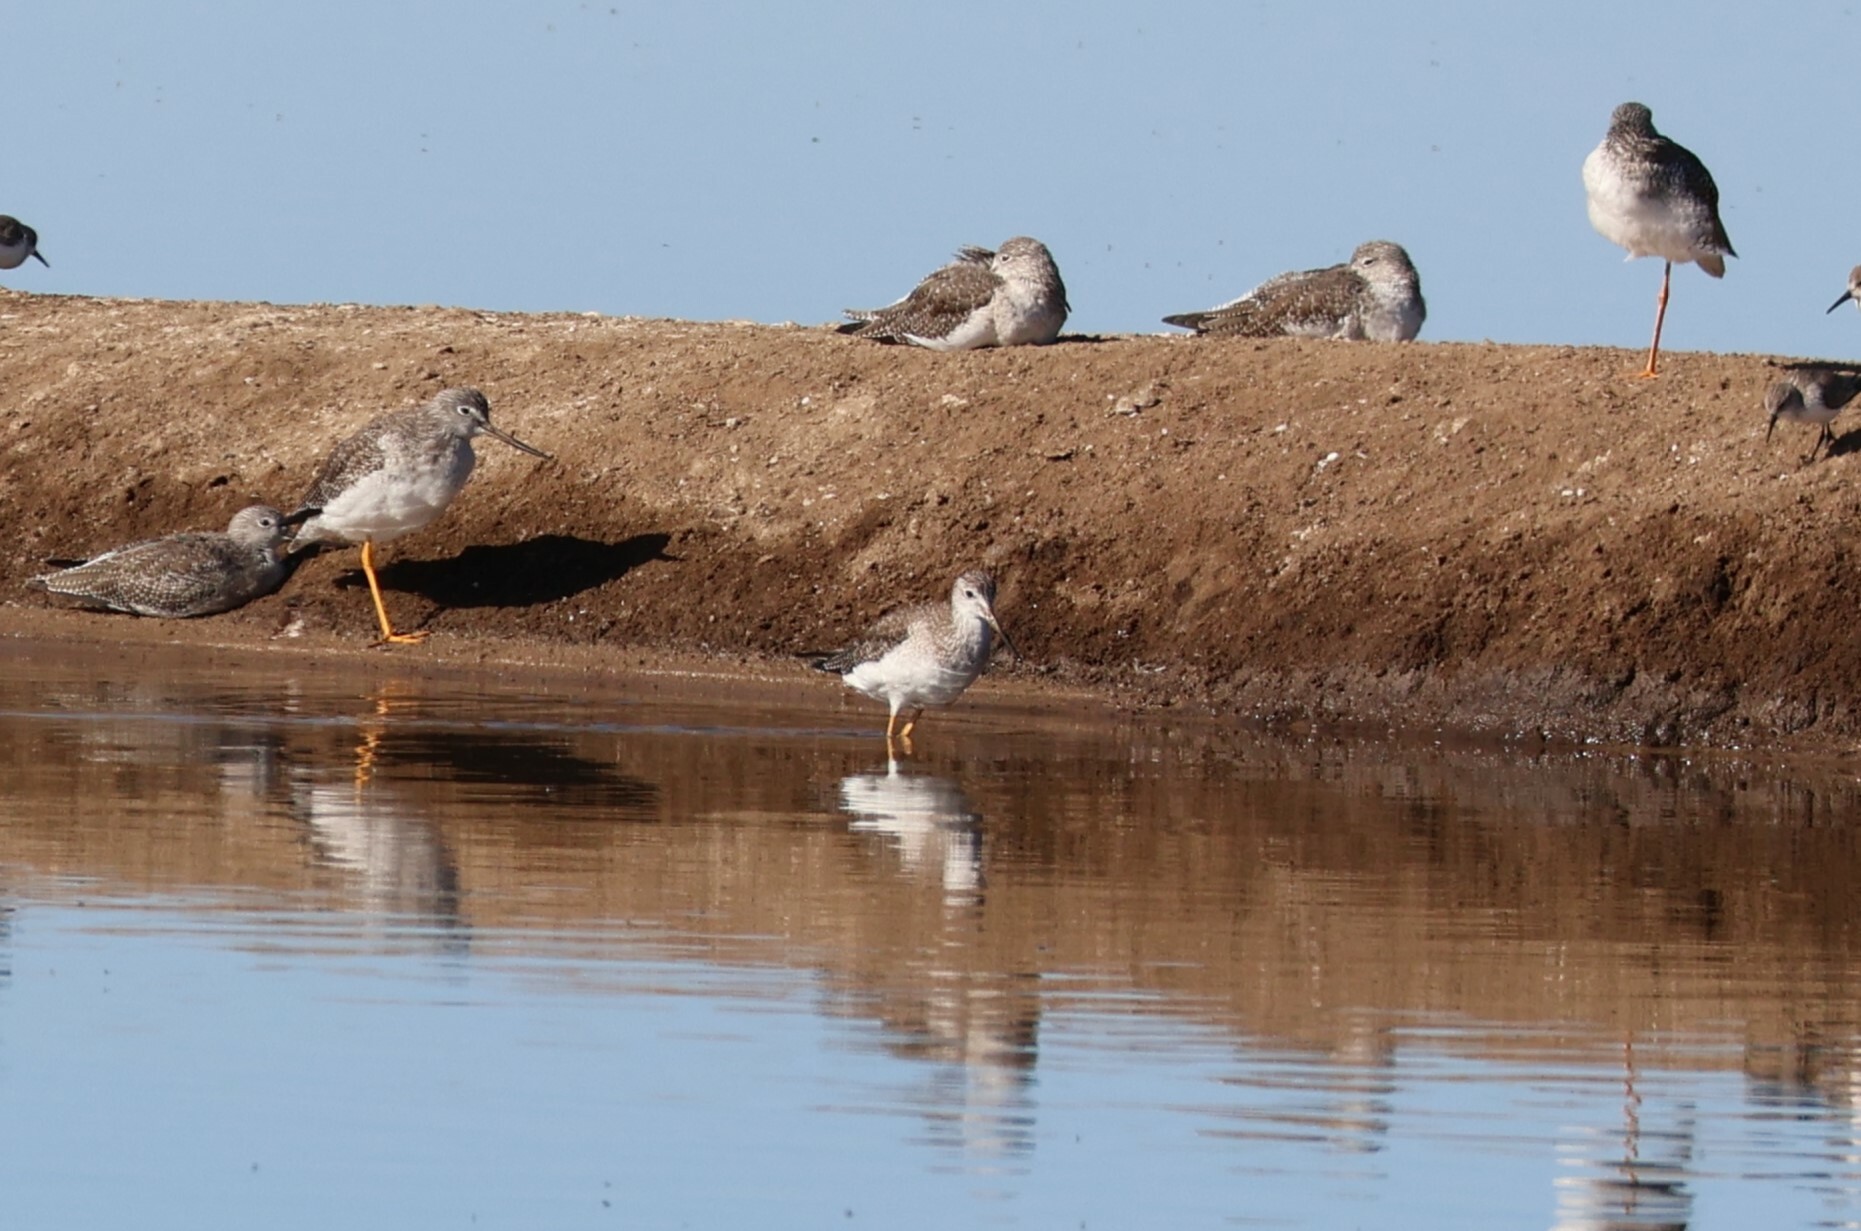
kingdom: Animalia
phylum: Chordata
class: Aves
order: Charadriiformes
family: Scolopacidae
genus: Tringa
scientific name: Tringa flavipes
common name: Lesser yellowlegs
